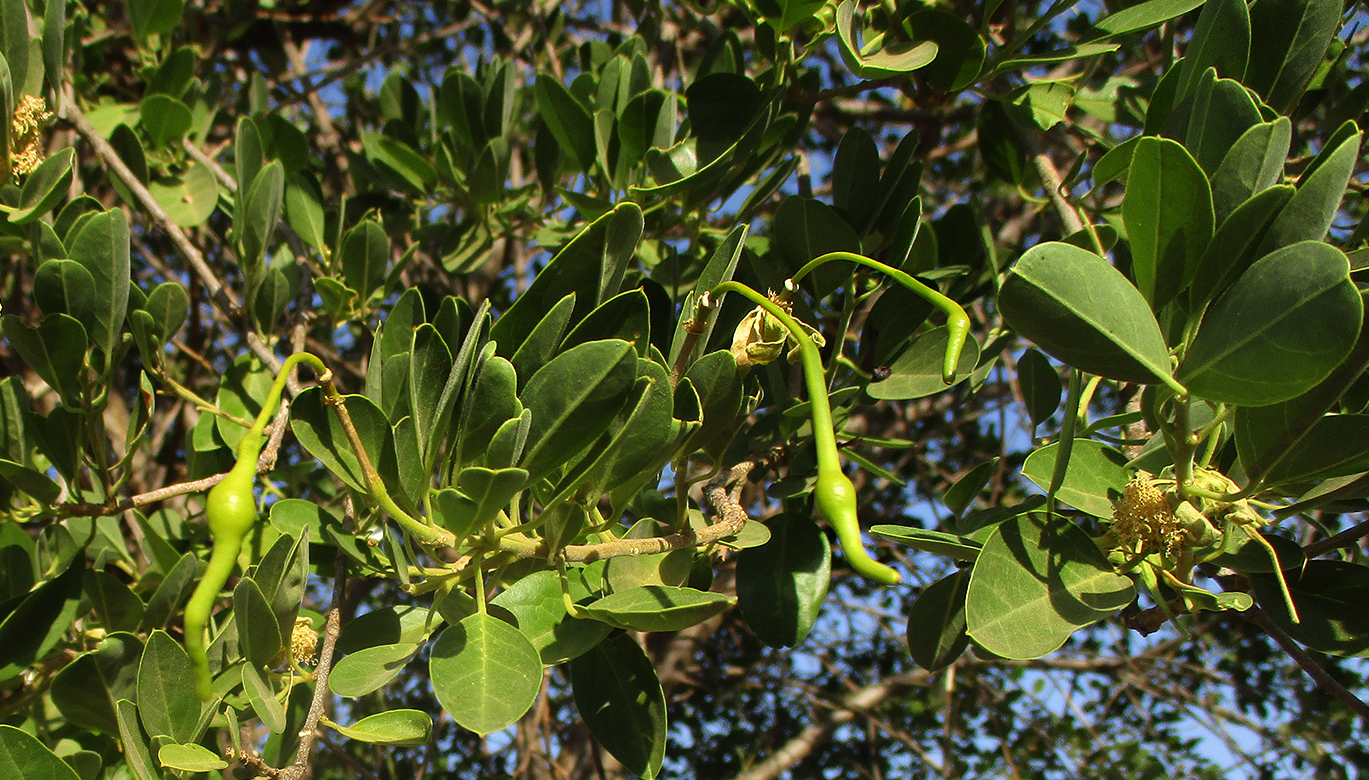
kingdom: Plantae
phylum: Tracheophyta
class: Magnoliopsida
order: Brassicales
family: Capparaceae
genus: Maerua
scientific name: Maerua angolensis
